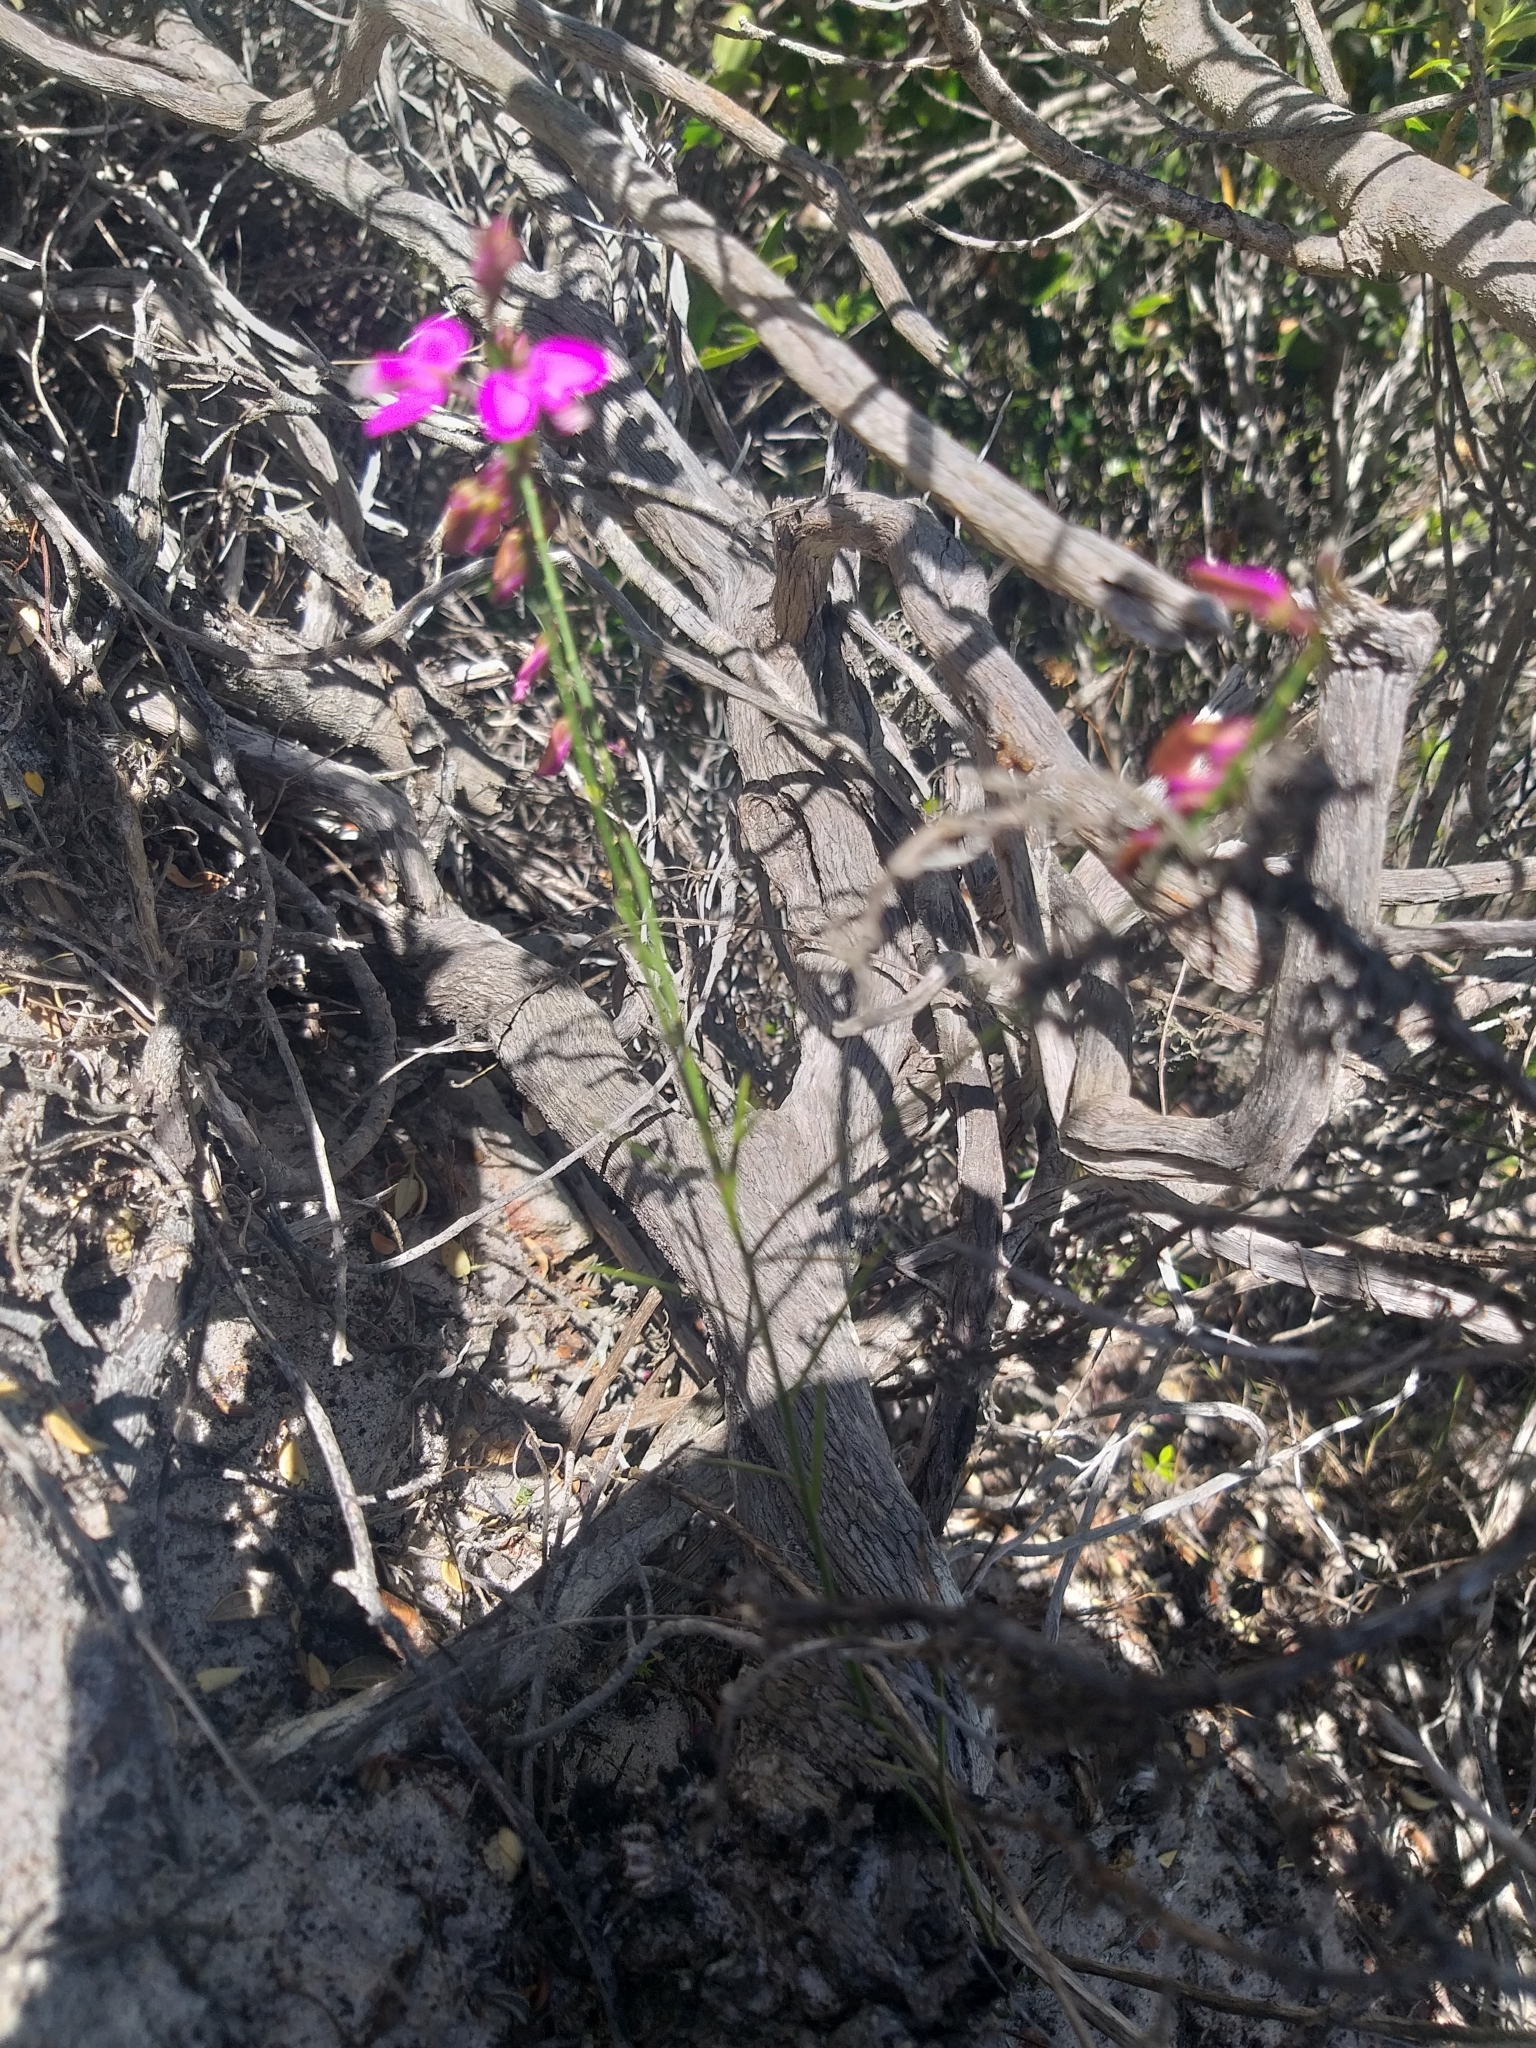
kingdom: Plantae
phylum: Tracheophyta
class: Magnoliopsida
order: Fabales
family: Polygalaceae
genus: Polygala
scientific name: Polygala garcini
